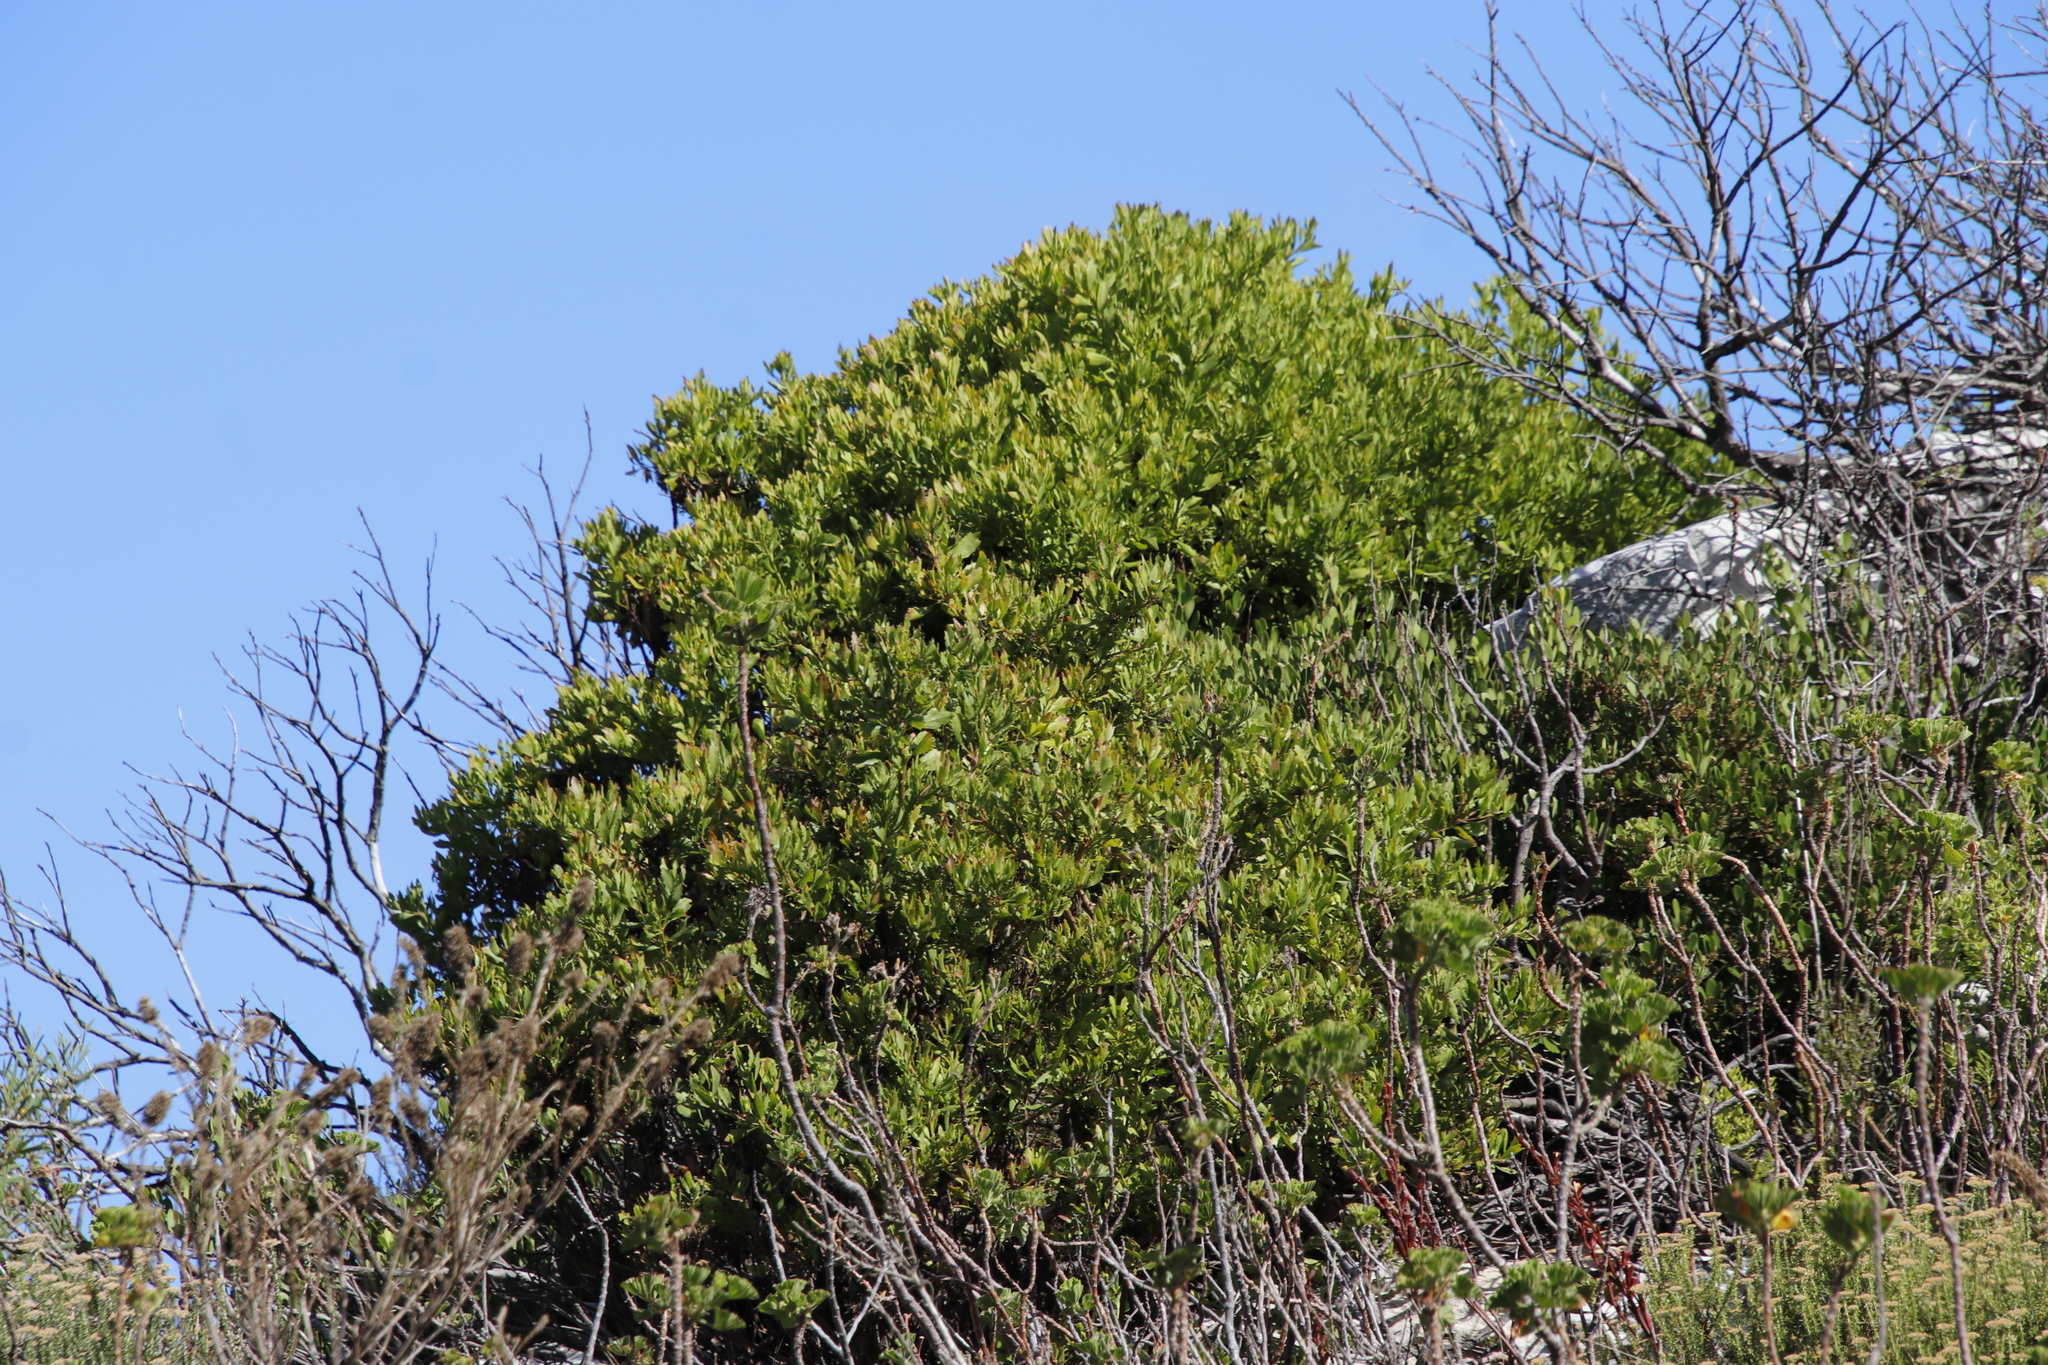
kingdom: Plantae
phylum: Tracheophyta
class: Magnoliopsida
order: Asterales
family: Asteraceae
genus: Osteospermum
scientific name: Osteospermum moniliferum
